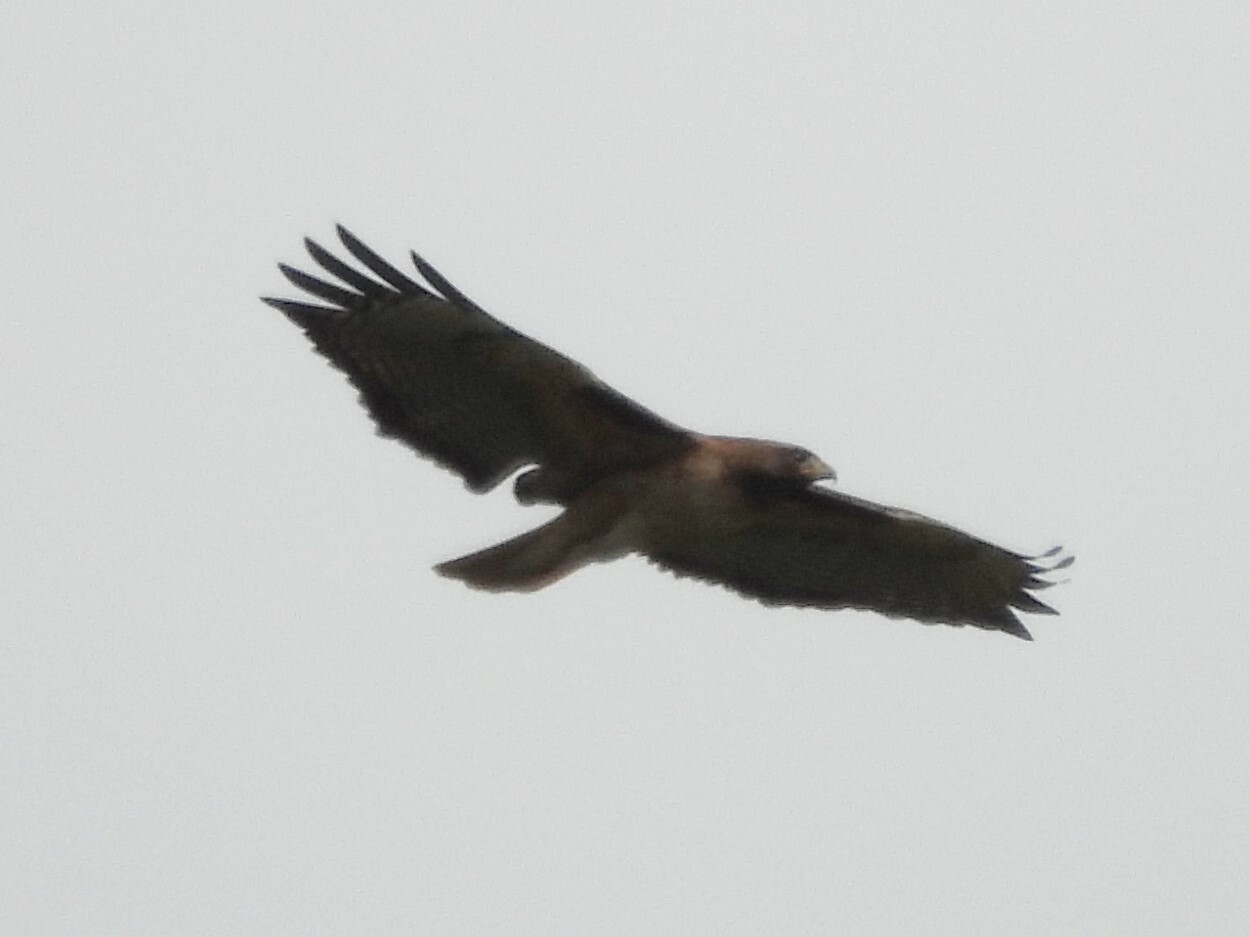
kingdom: Animalia
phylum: Chordata
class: Aves
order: Accipitriformes
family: Accipitridae
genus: Buteo
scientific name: Buteo jamaicensis
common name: Red-tailed hawk
